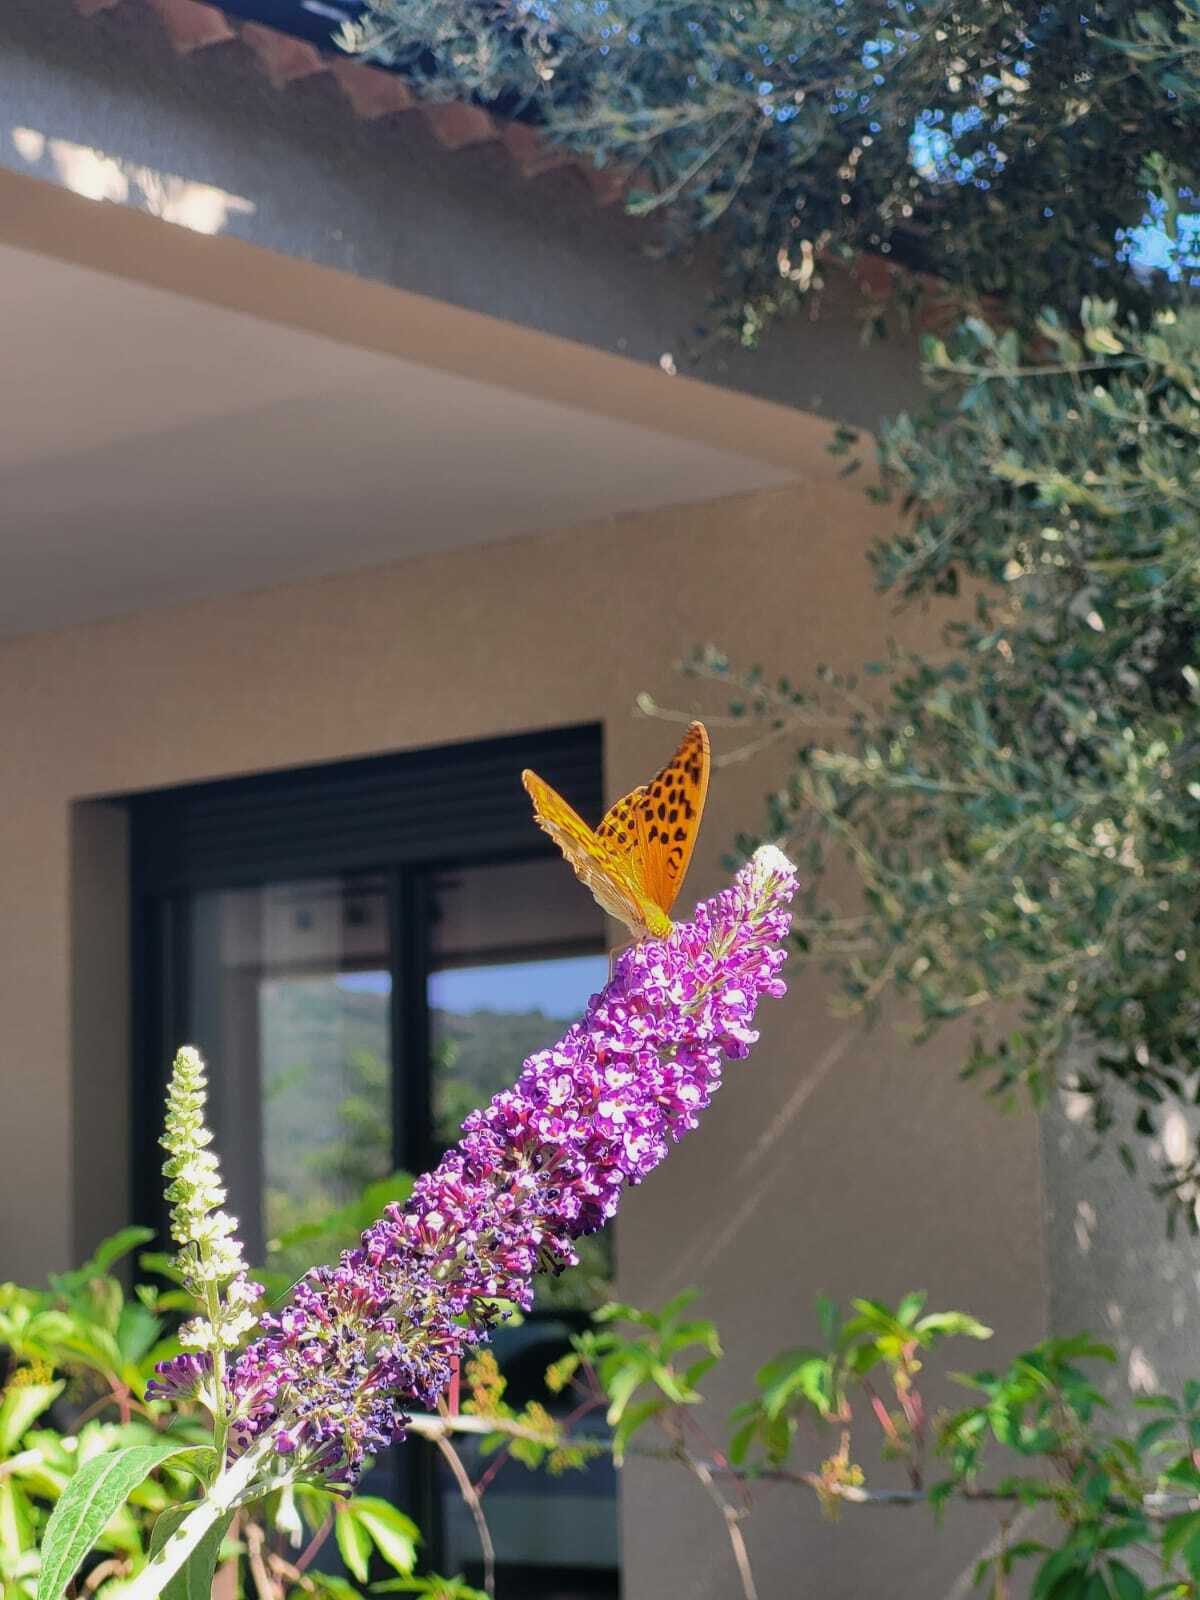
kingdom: Animalia
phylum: Arthropoda
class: Insecta
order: Lepidoptera
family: Nymphalidae
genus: Argynnis
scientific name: Argynnis paphia
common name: Silver-washed fritillary
